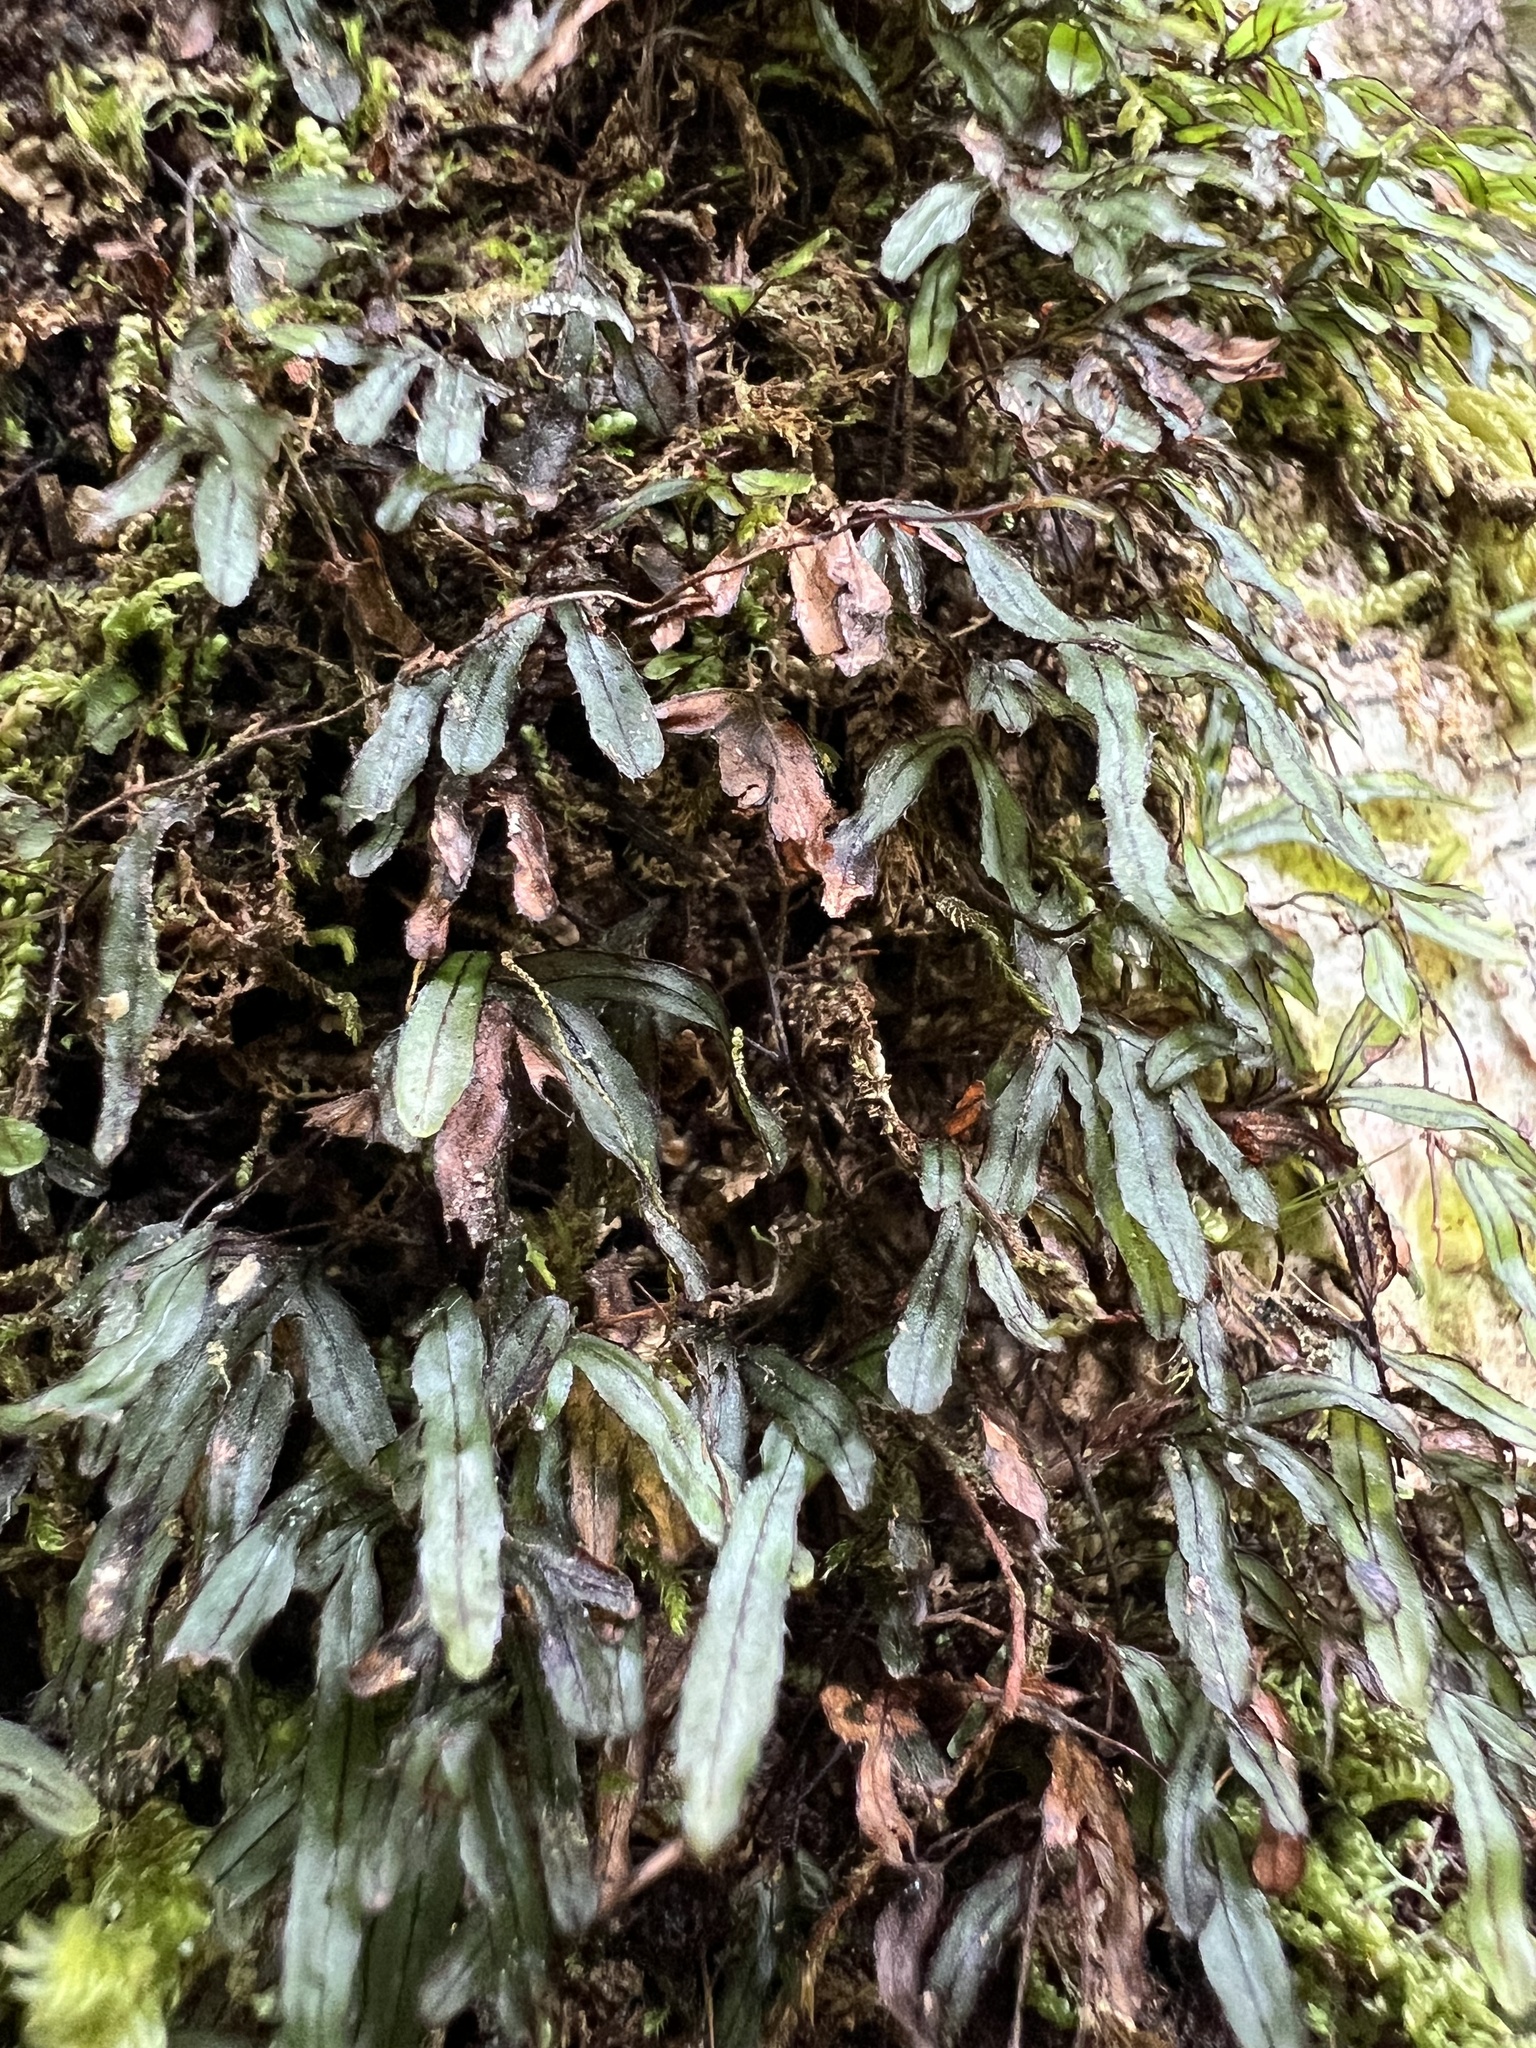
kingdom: Plantae
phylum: Tracheophyta
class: Polypodiopsida
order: Hymenophyllales
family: Hymenophyllaceae
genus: Hymenophyllum
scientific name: Hymenophyllum armstrongii
